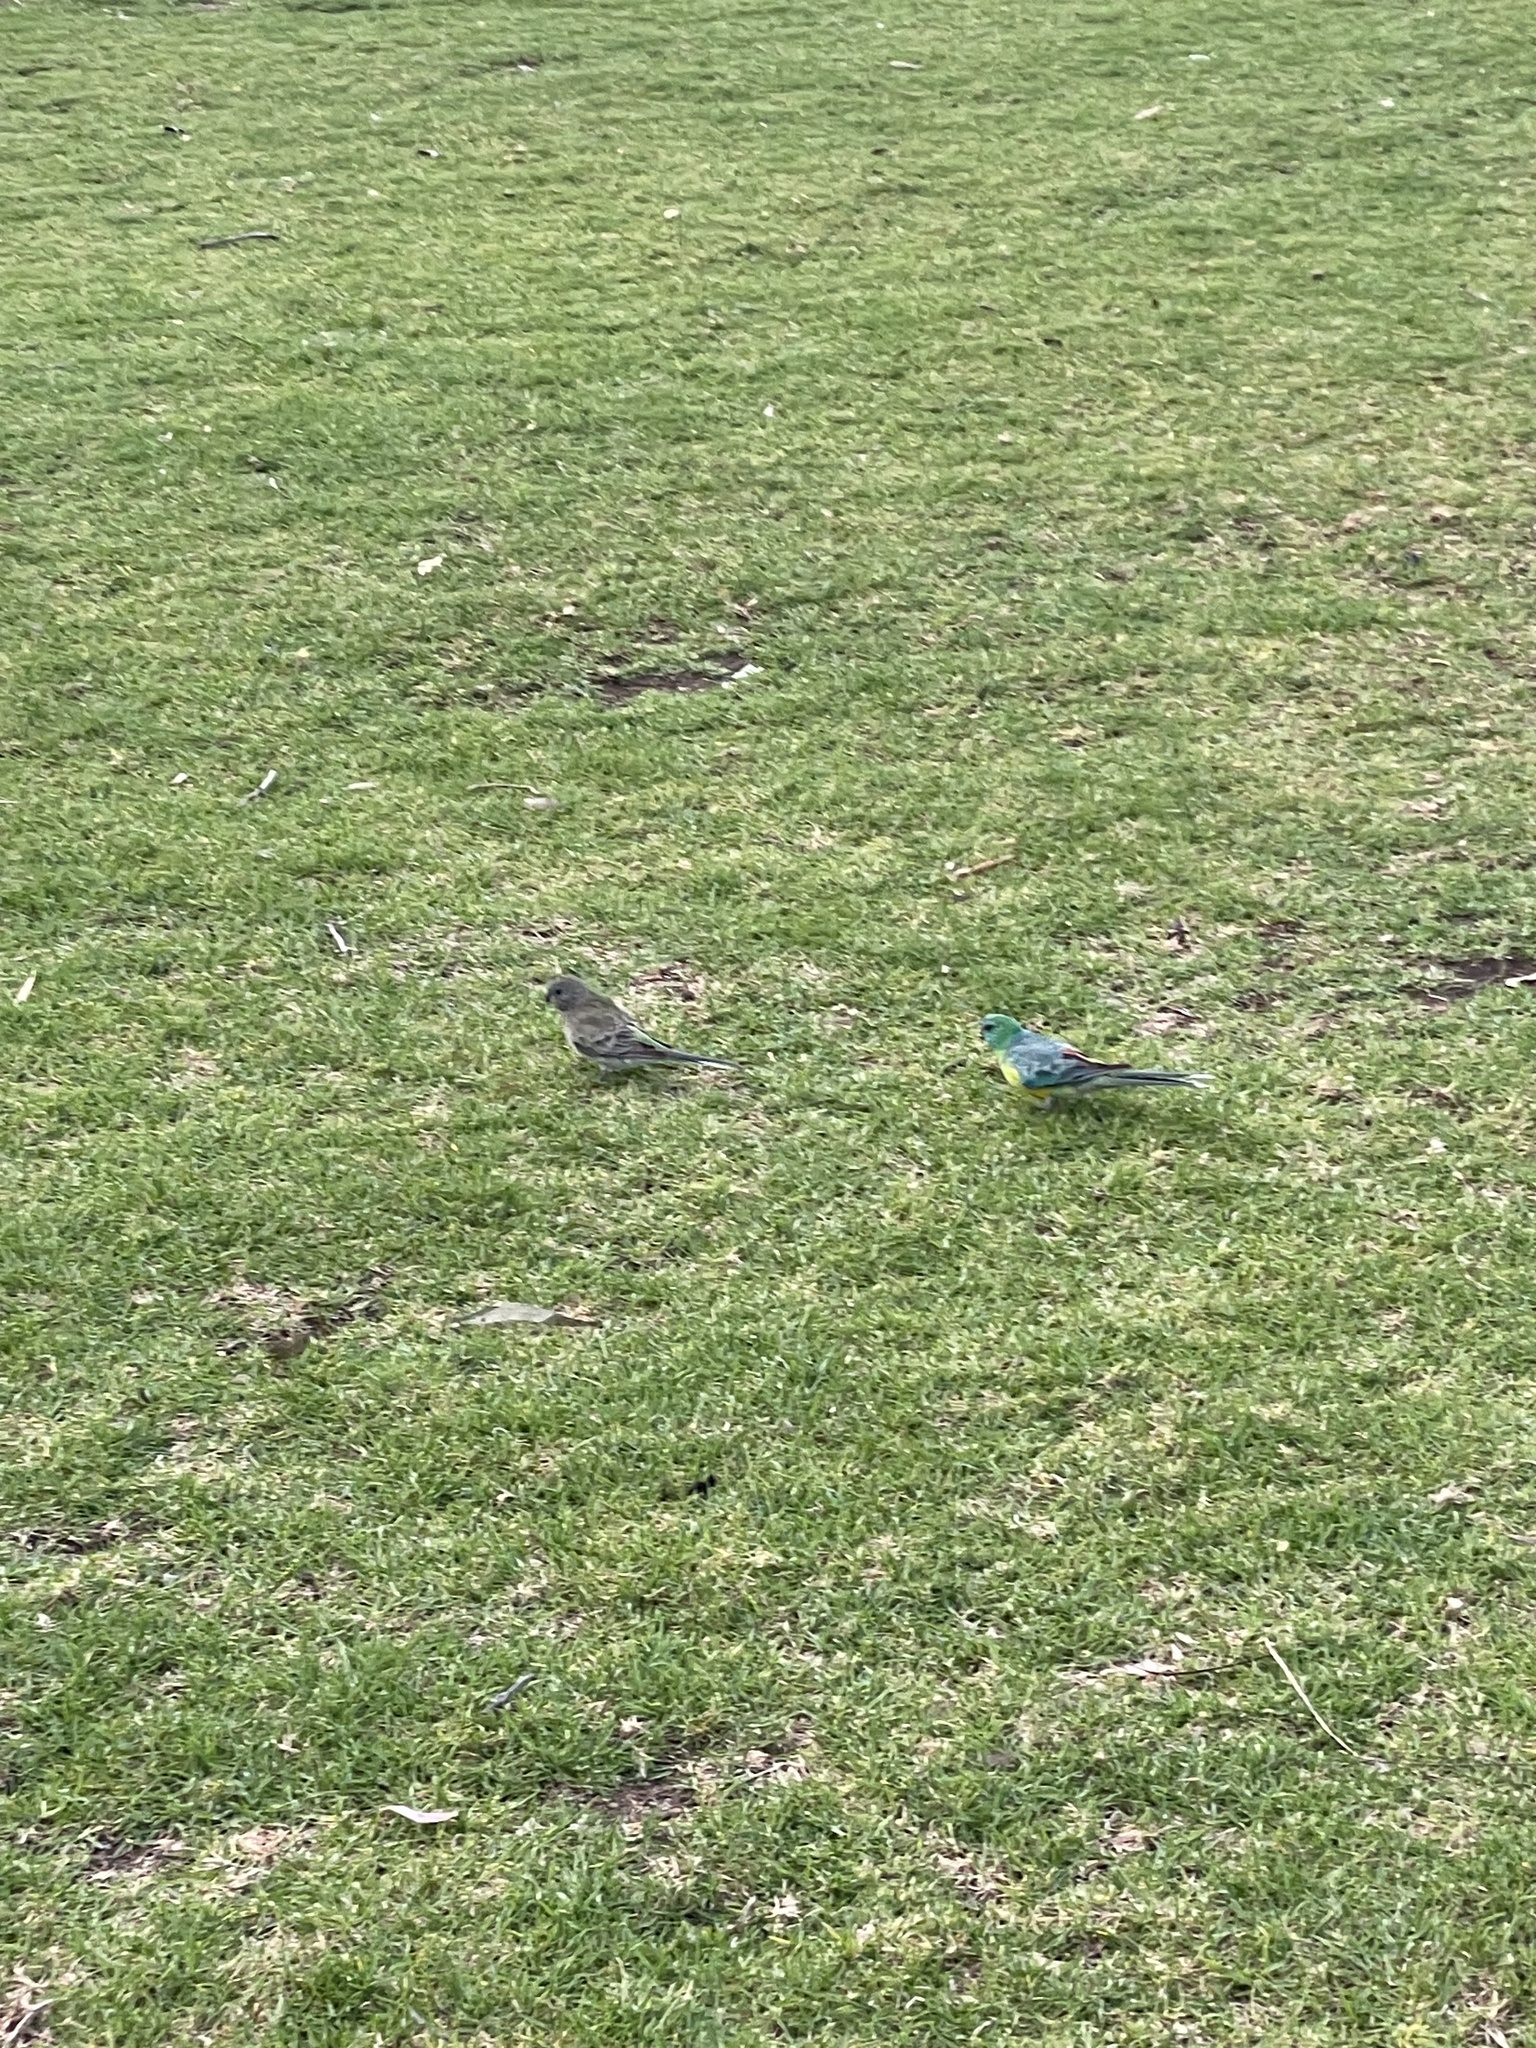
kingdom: Animalia
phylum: Chordata
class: Aves
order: Psittaciformes
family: Psittacidae
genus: Psephotus
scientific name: Psephotus haematonotus
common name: Red-rumped parrot
